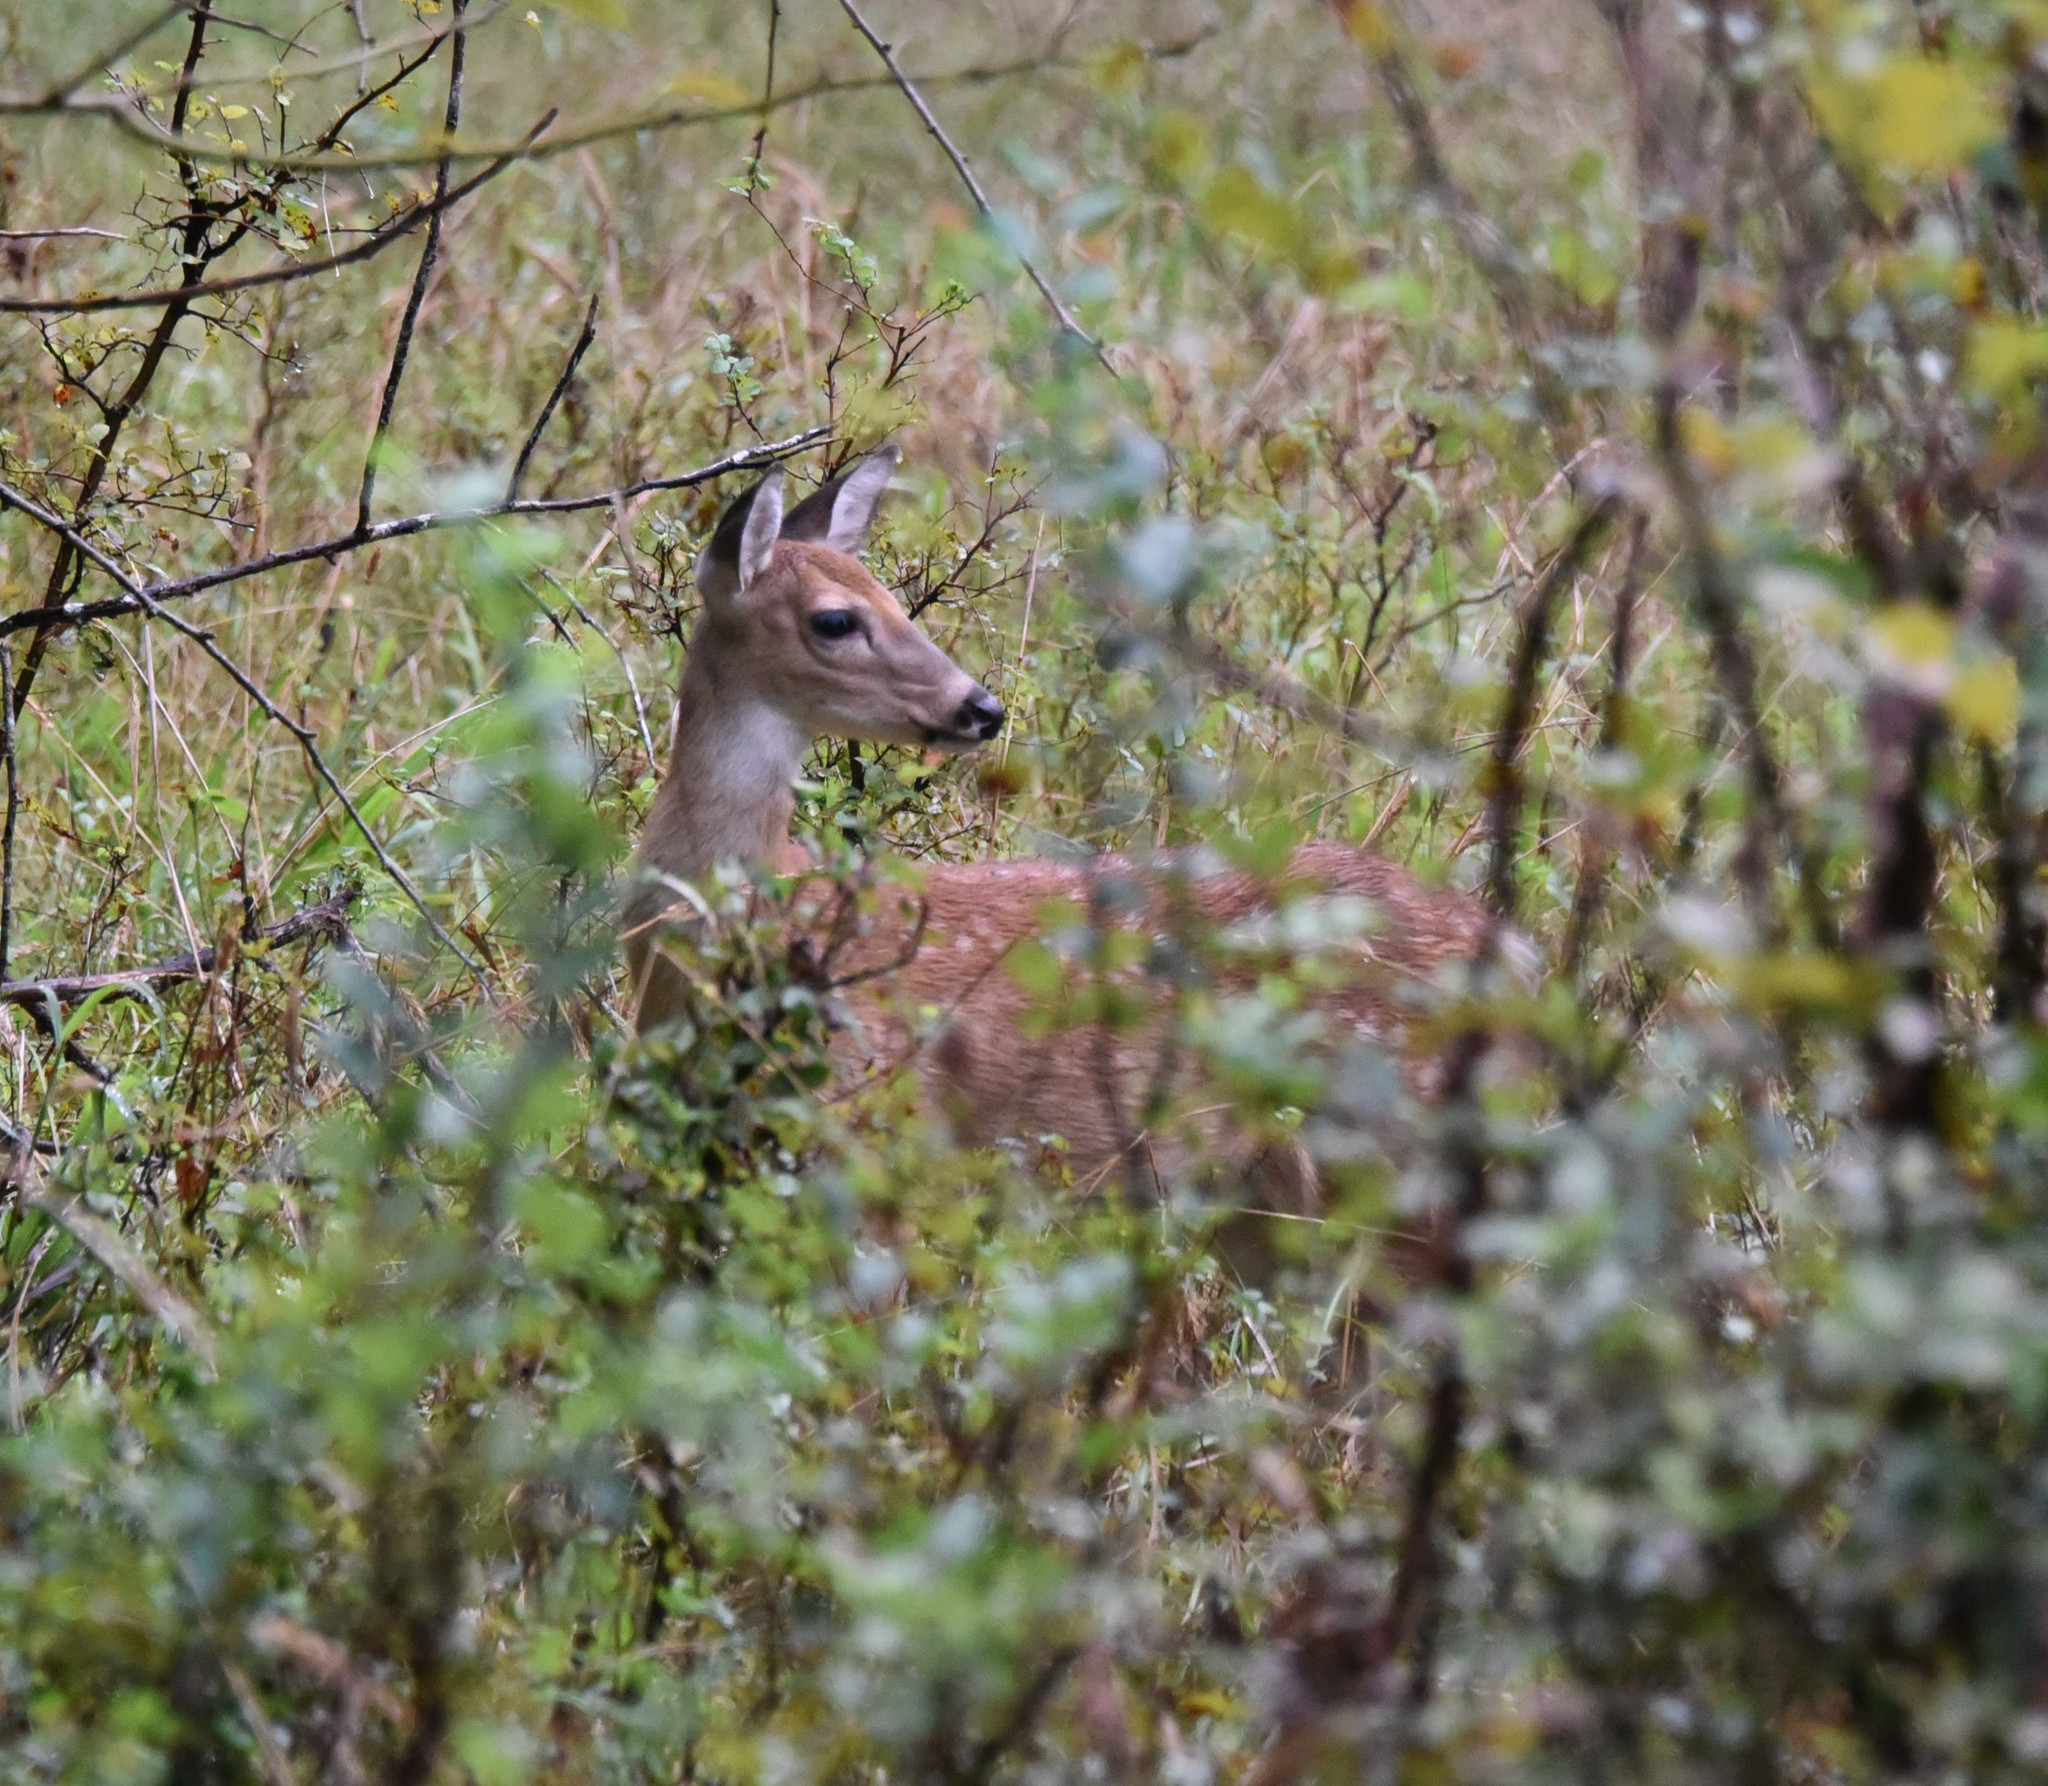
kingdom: Animalia
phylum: Chordata
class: Mammalia
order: Artiodactyla
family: Cervidae
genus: Odocoileus
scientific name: Odocoileus virginianus
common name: White-tailed deer
